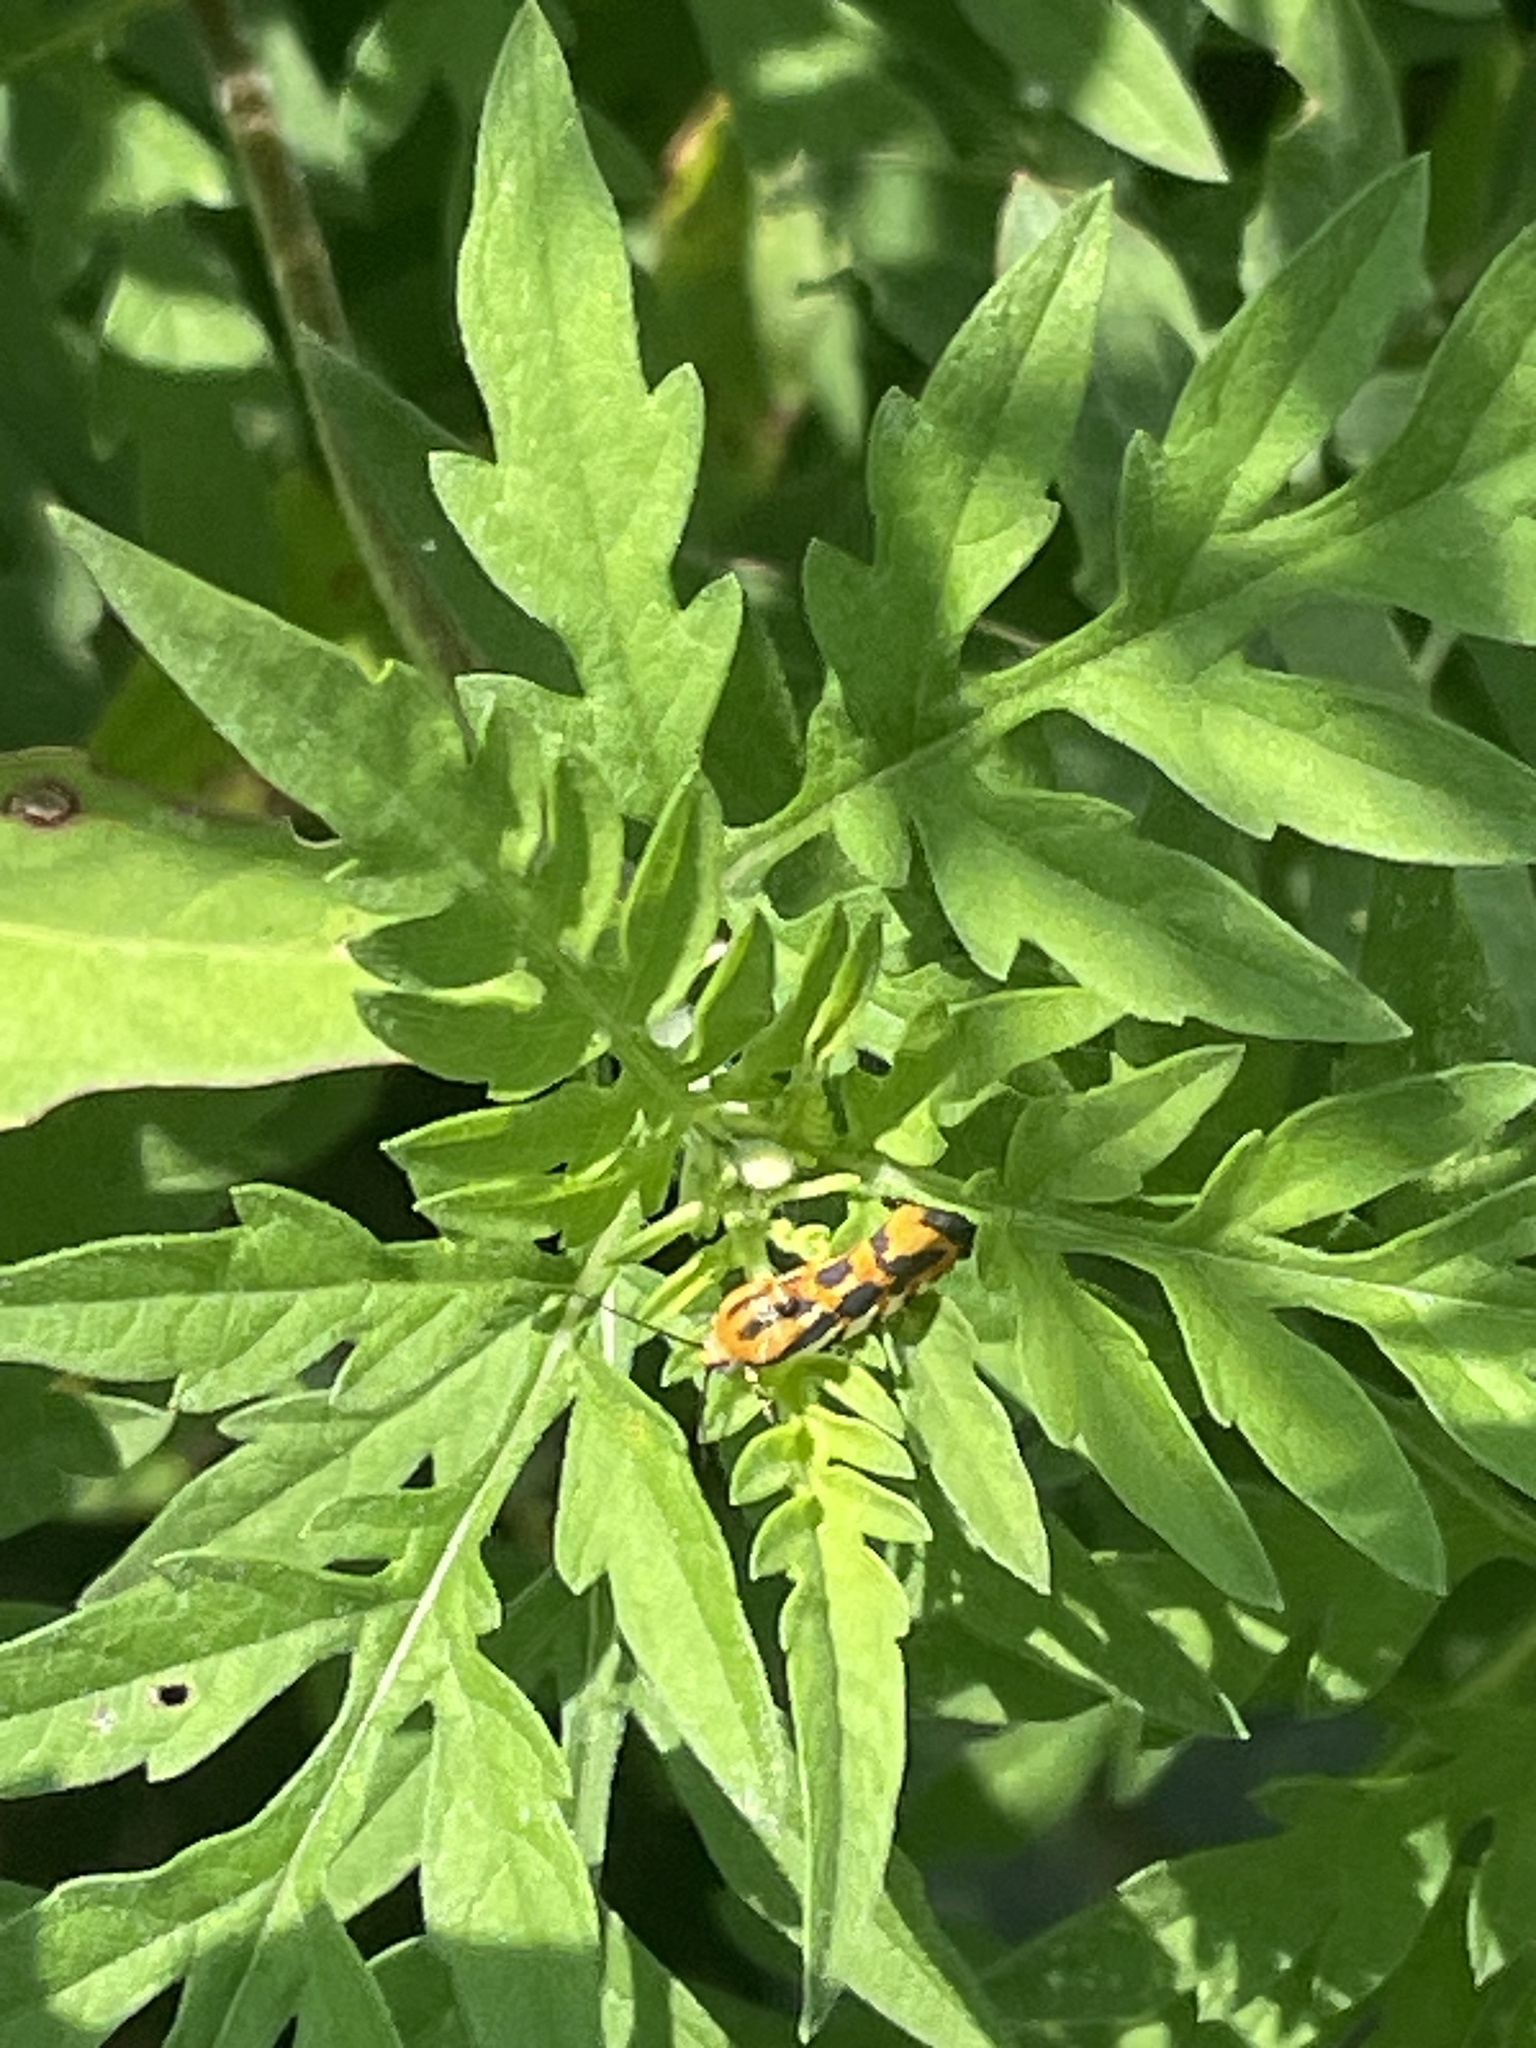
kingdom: Animalia
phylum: Arthropoda
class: Insecta
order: Lepidoptera
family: Noctuidae
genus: Acontia
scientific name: Acontia leo
